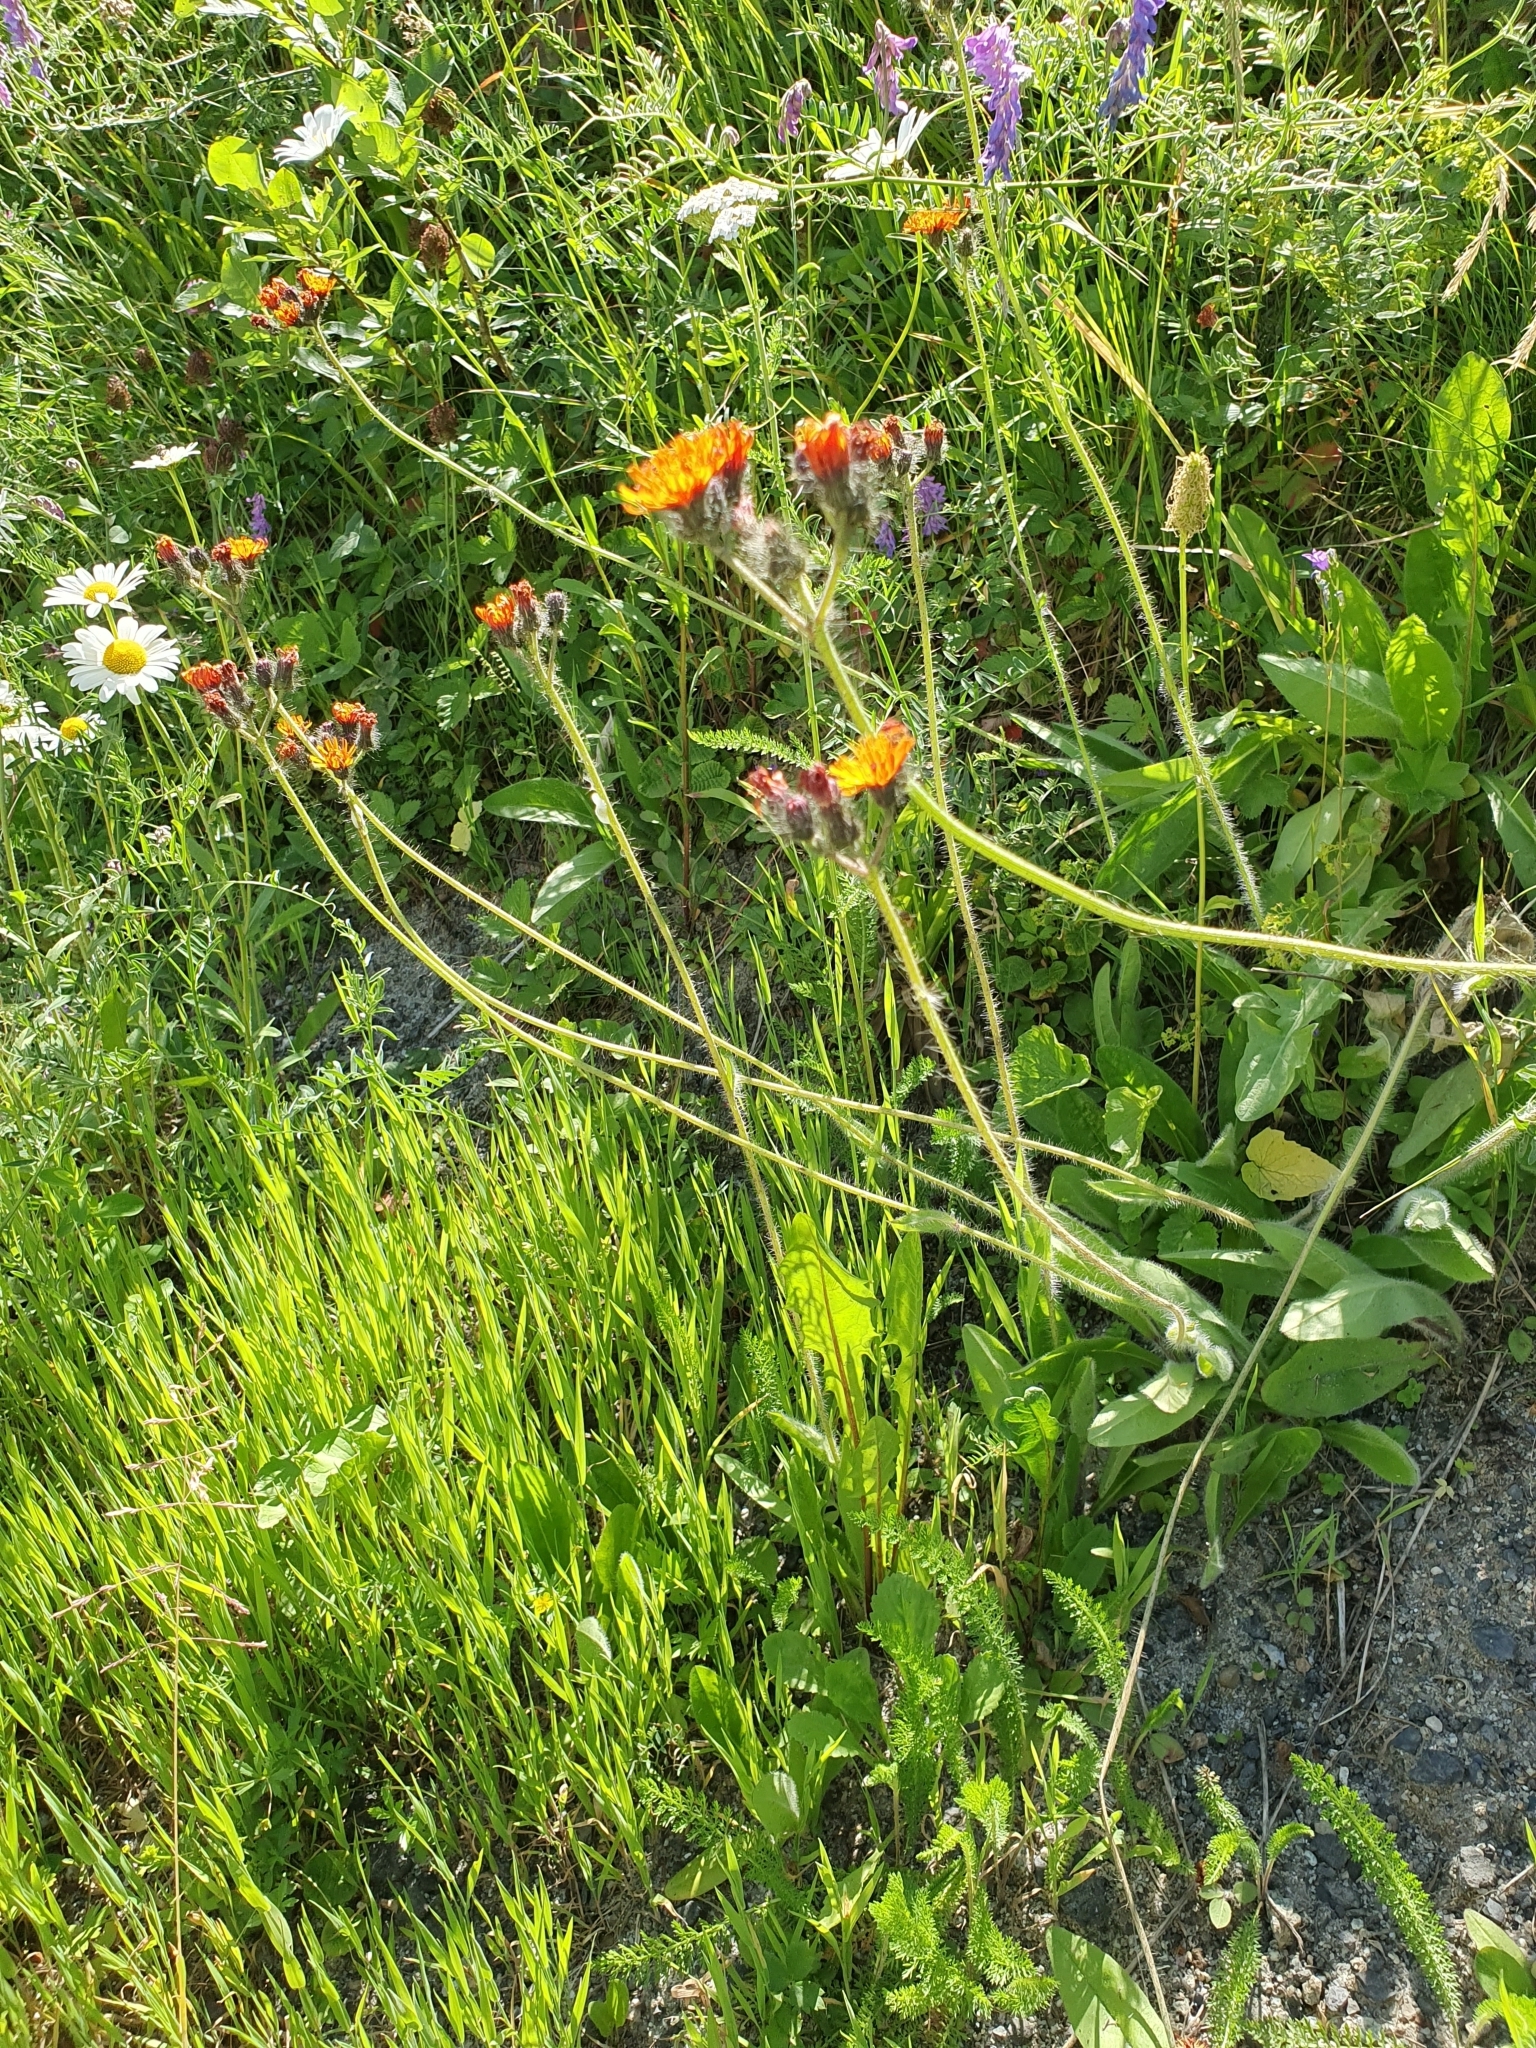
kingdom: Plantae
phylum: Tracheophyta
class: Magnoliopsida
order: Asterales
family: Asteraceae
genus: Pilosella
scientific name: Pilosella aurantiaca
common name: Fox-and-cubs
